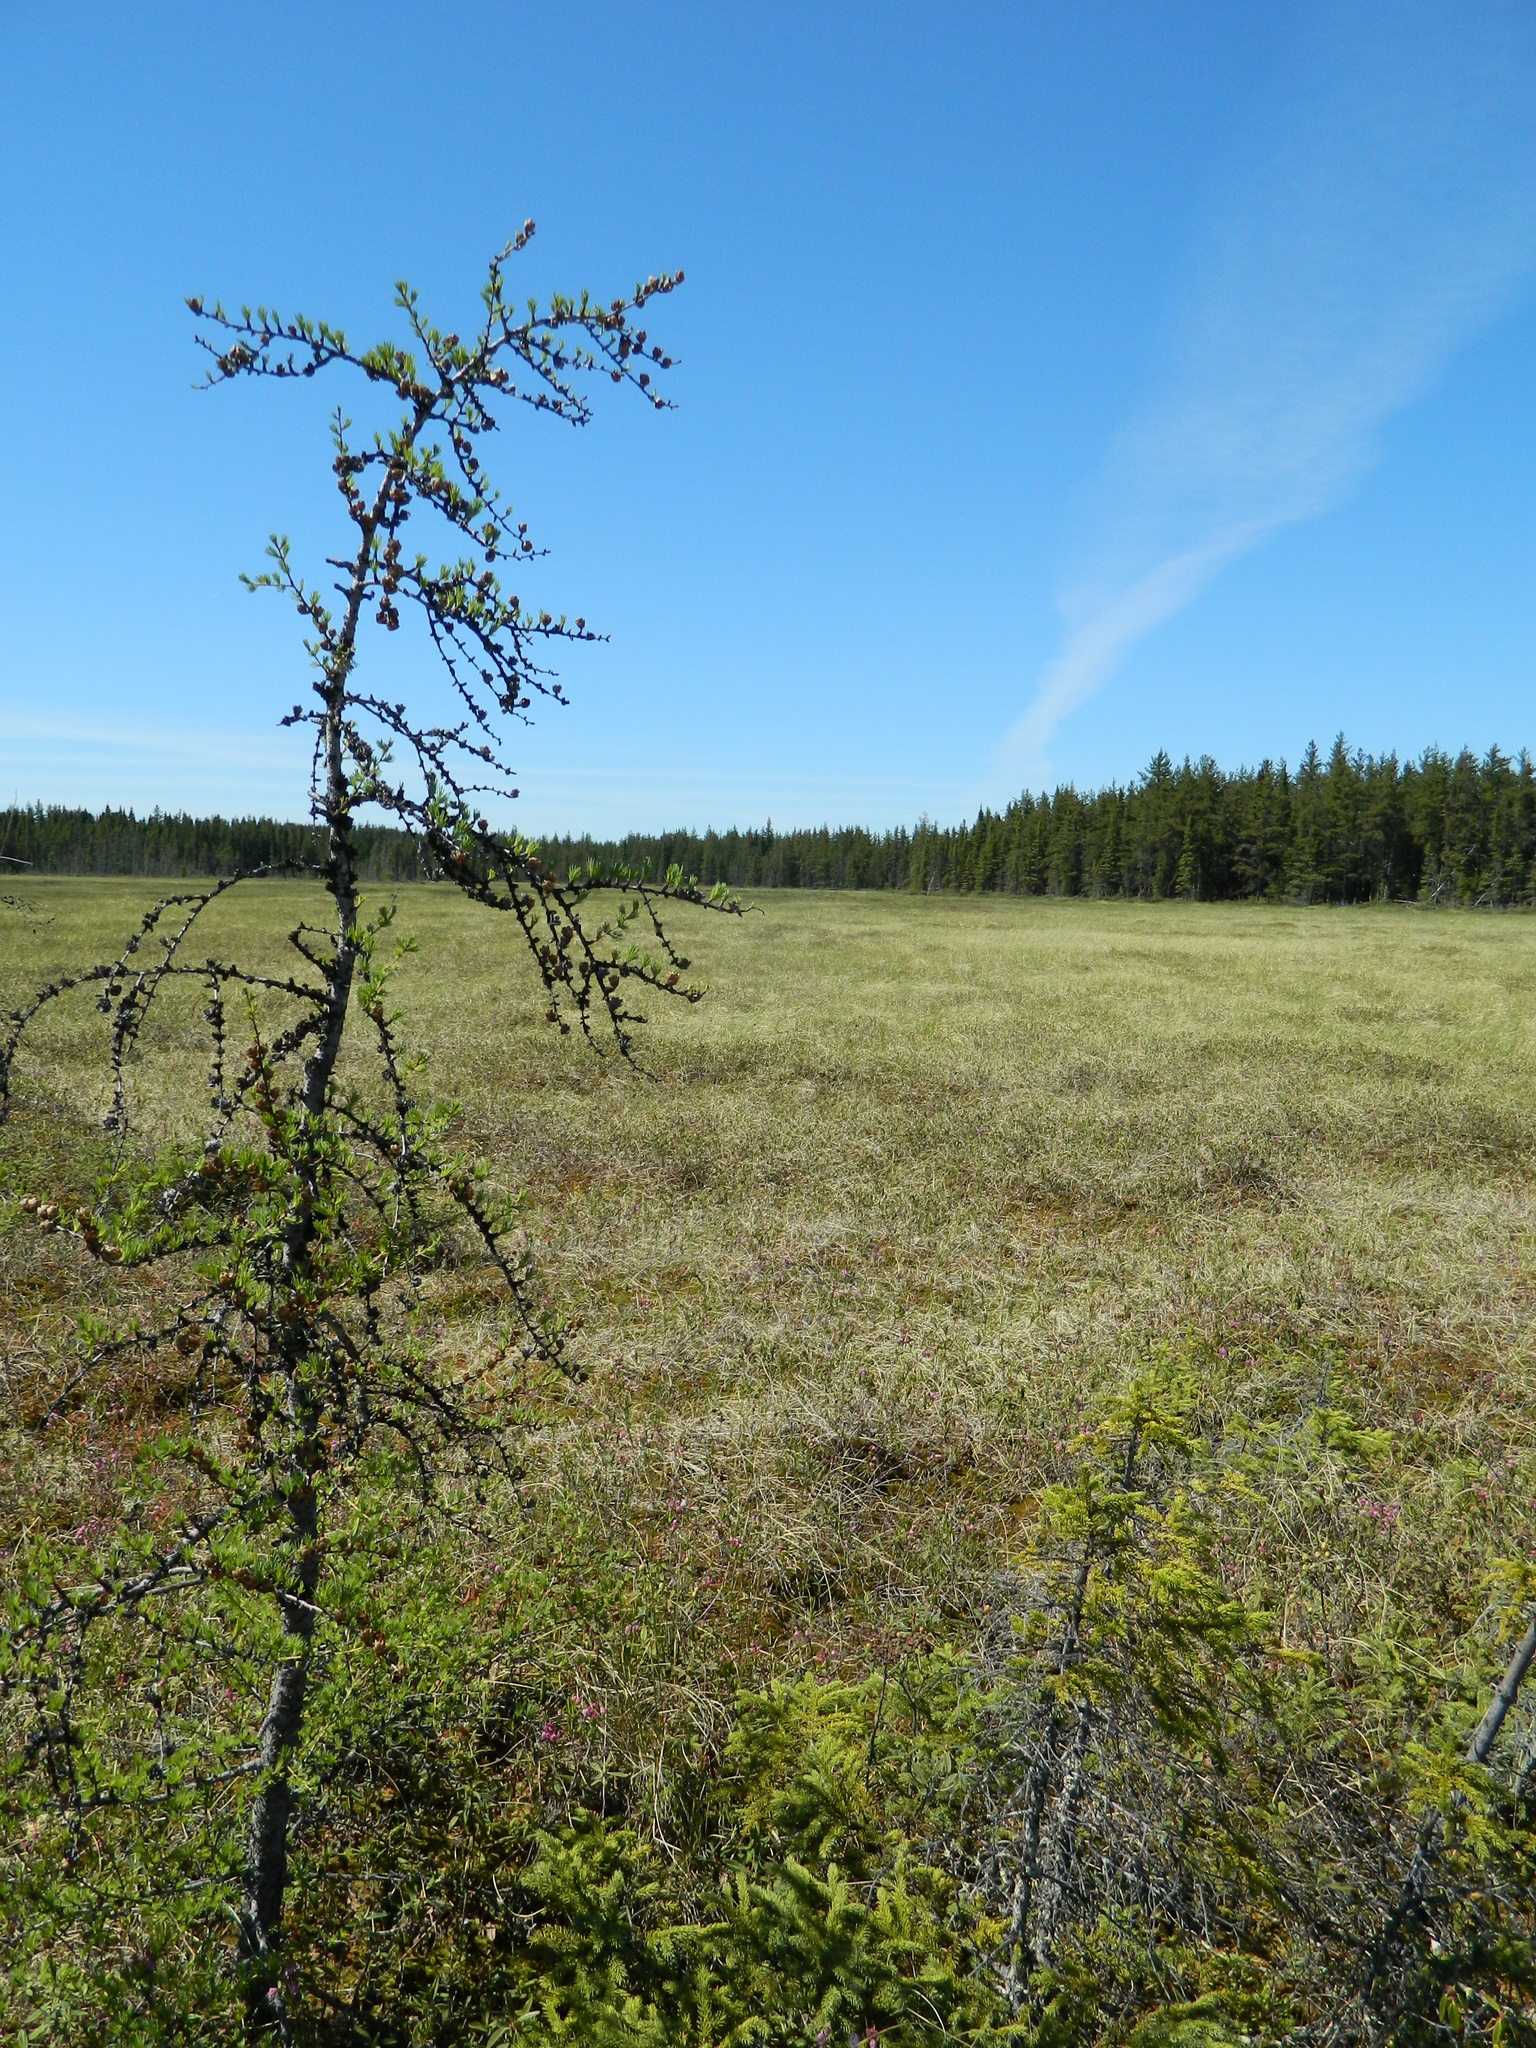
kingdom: Plantae
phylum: Tracheophyta
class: Pinopsida
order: Pinales
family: Pinaceae
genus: Larix
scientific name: Larix laricina
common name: American larch
